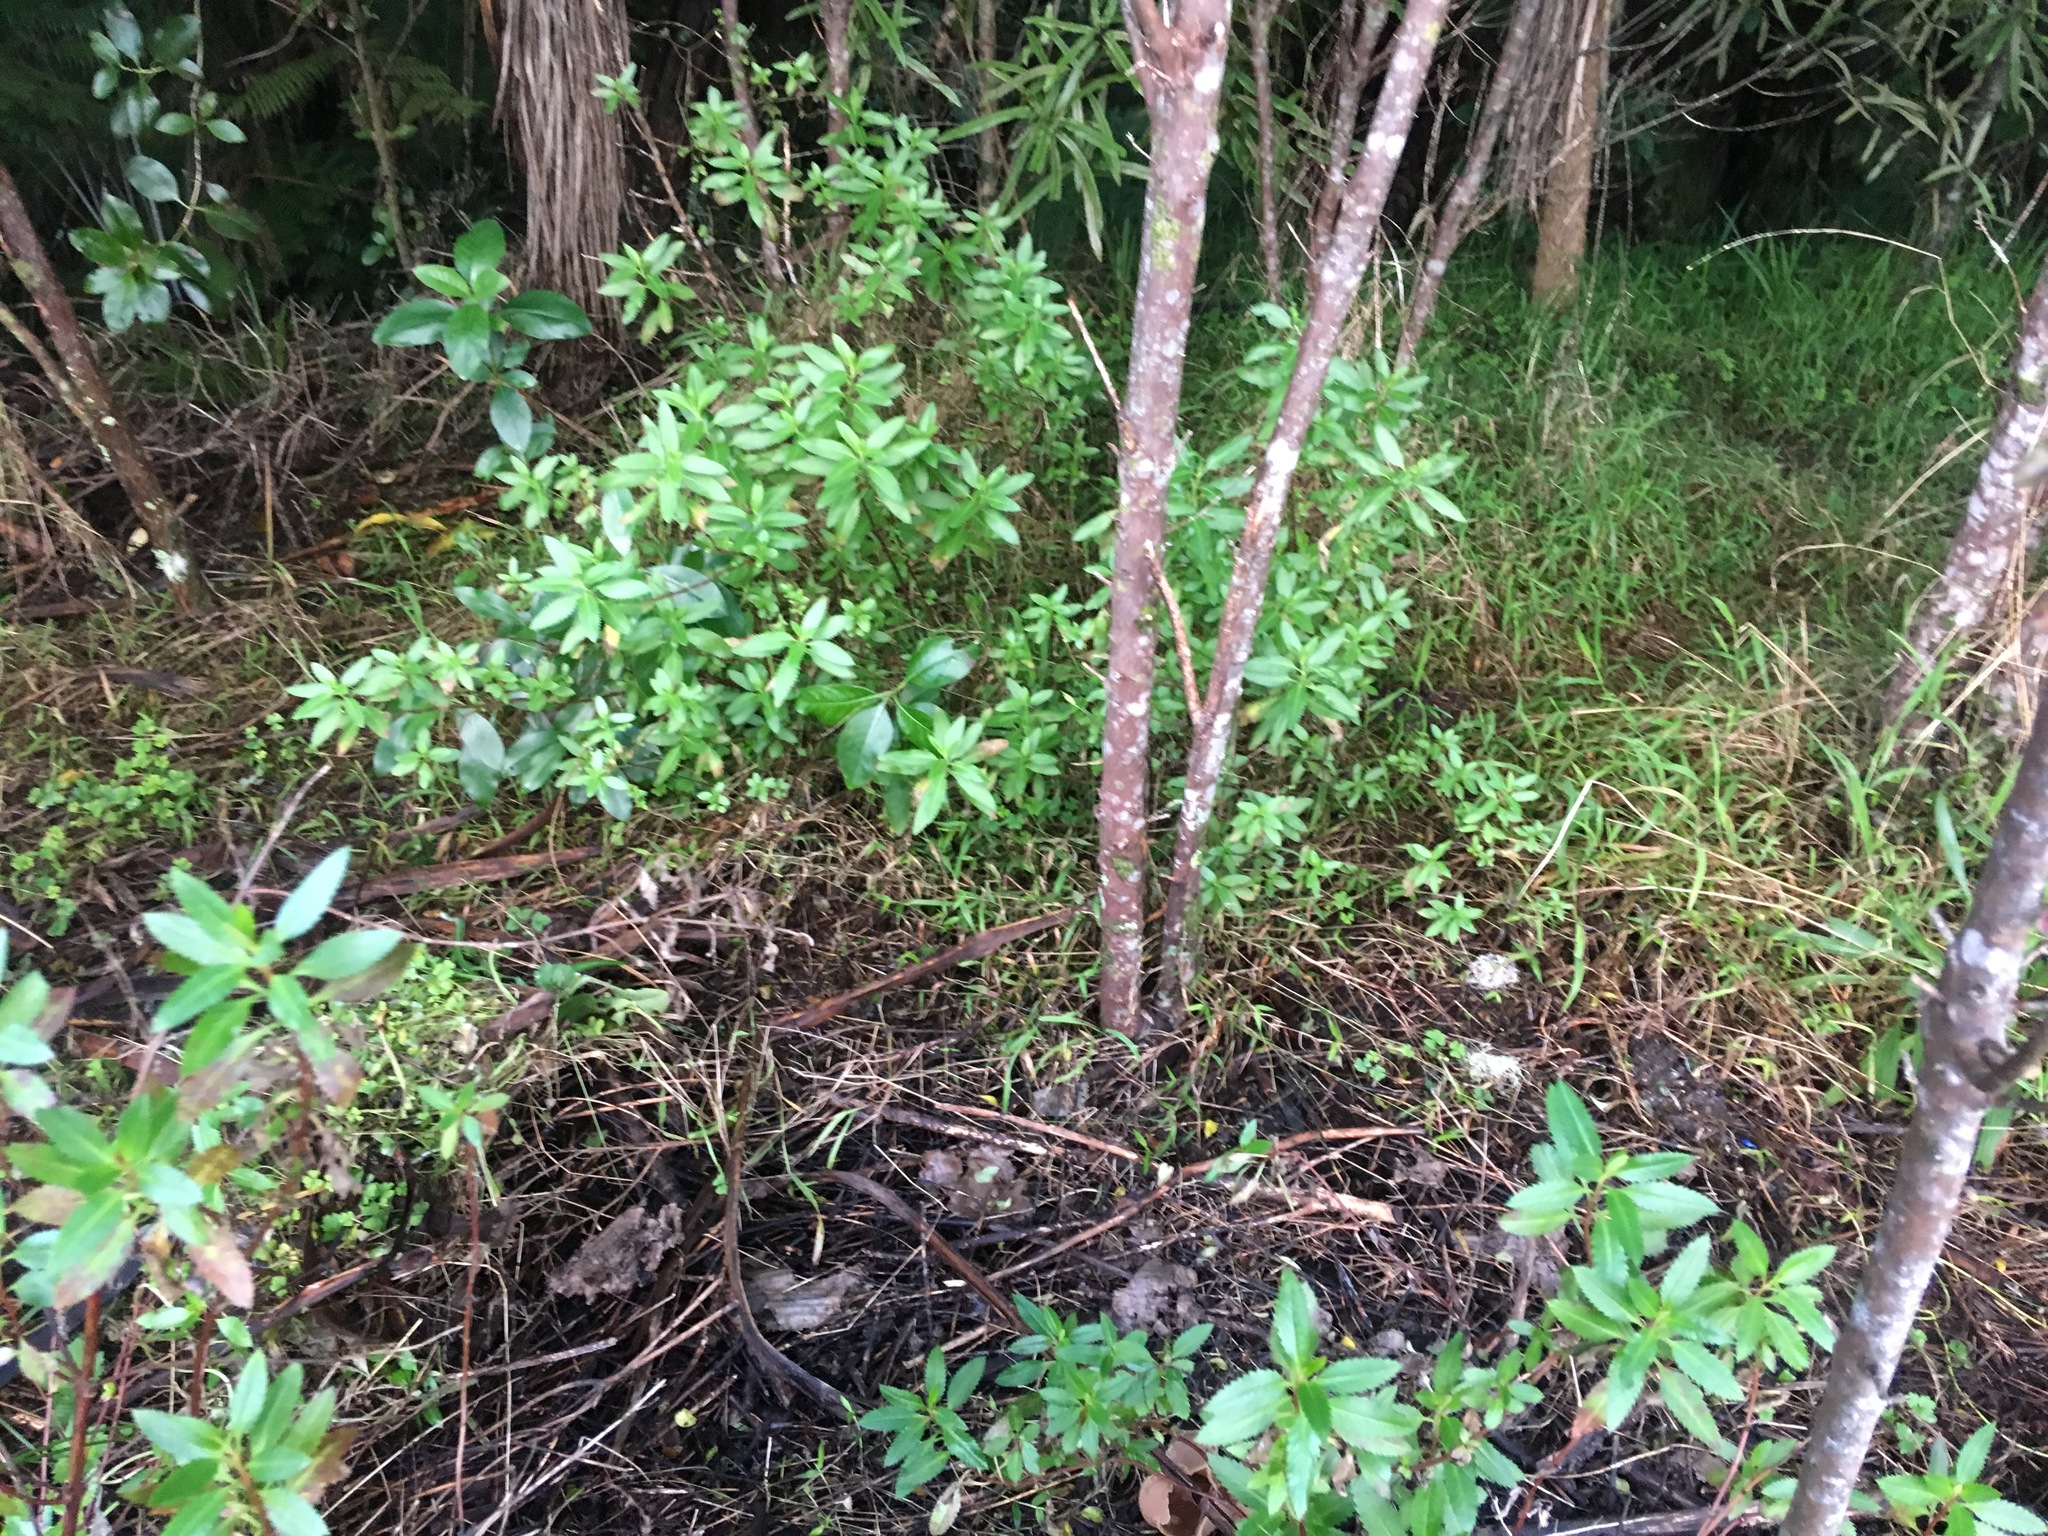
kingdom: Plantae
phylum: Tracheophyta
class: Magnoliopsida
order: Saxifragales
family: Haloragaceae
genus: Haloragis
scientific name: Haloragis erecta
